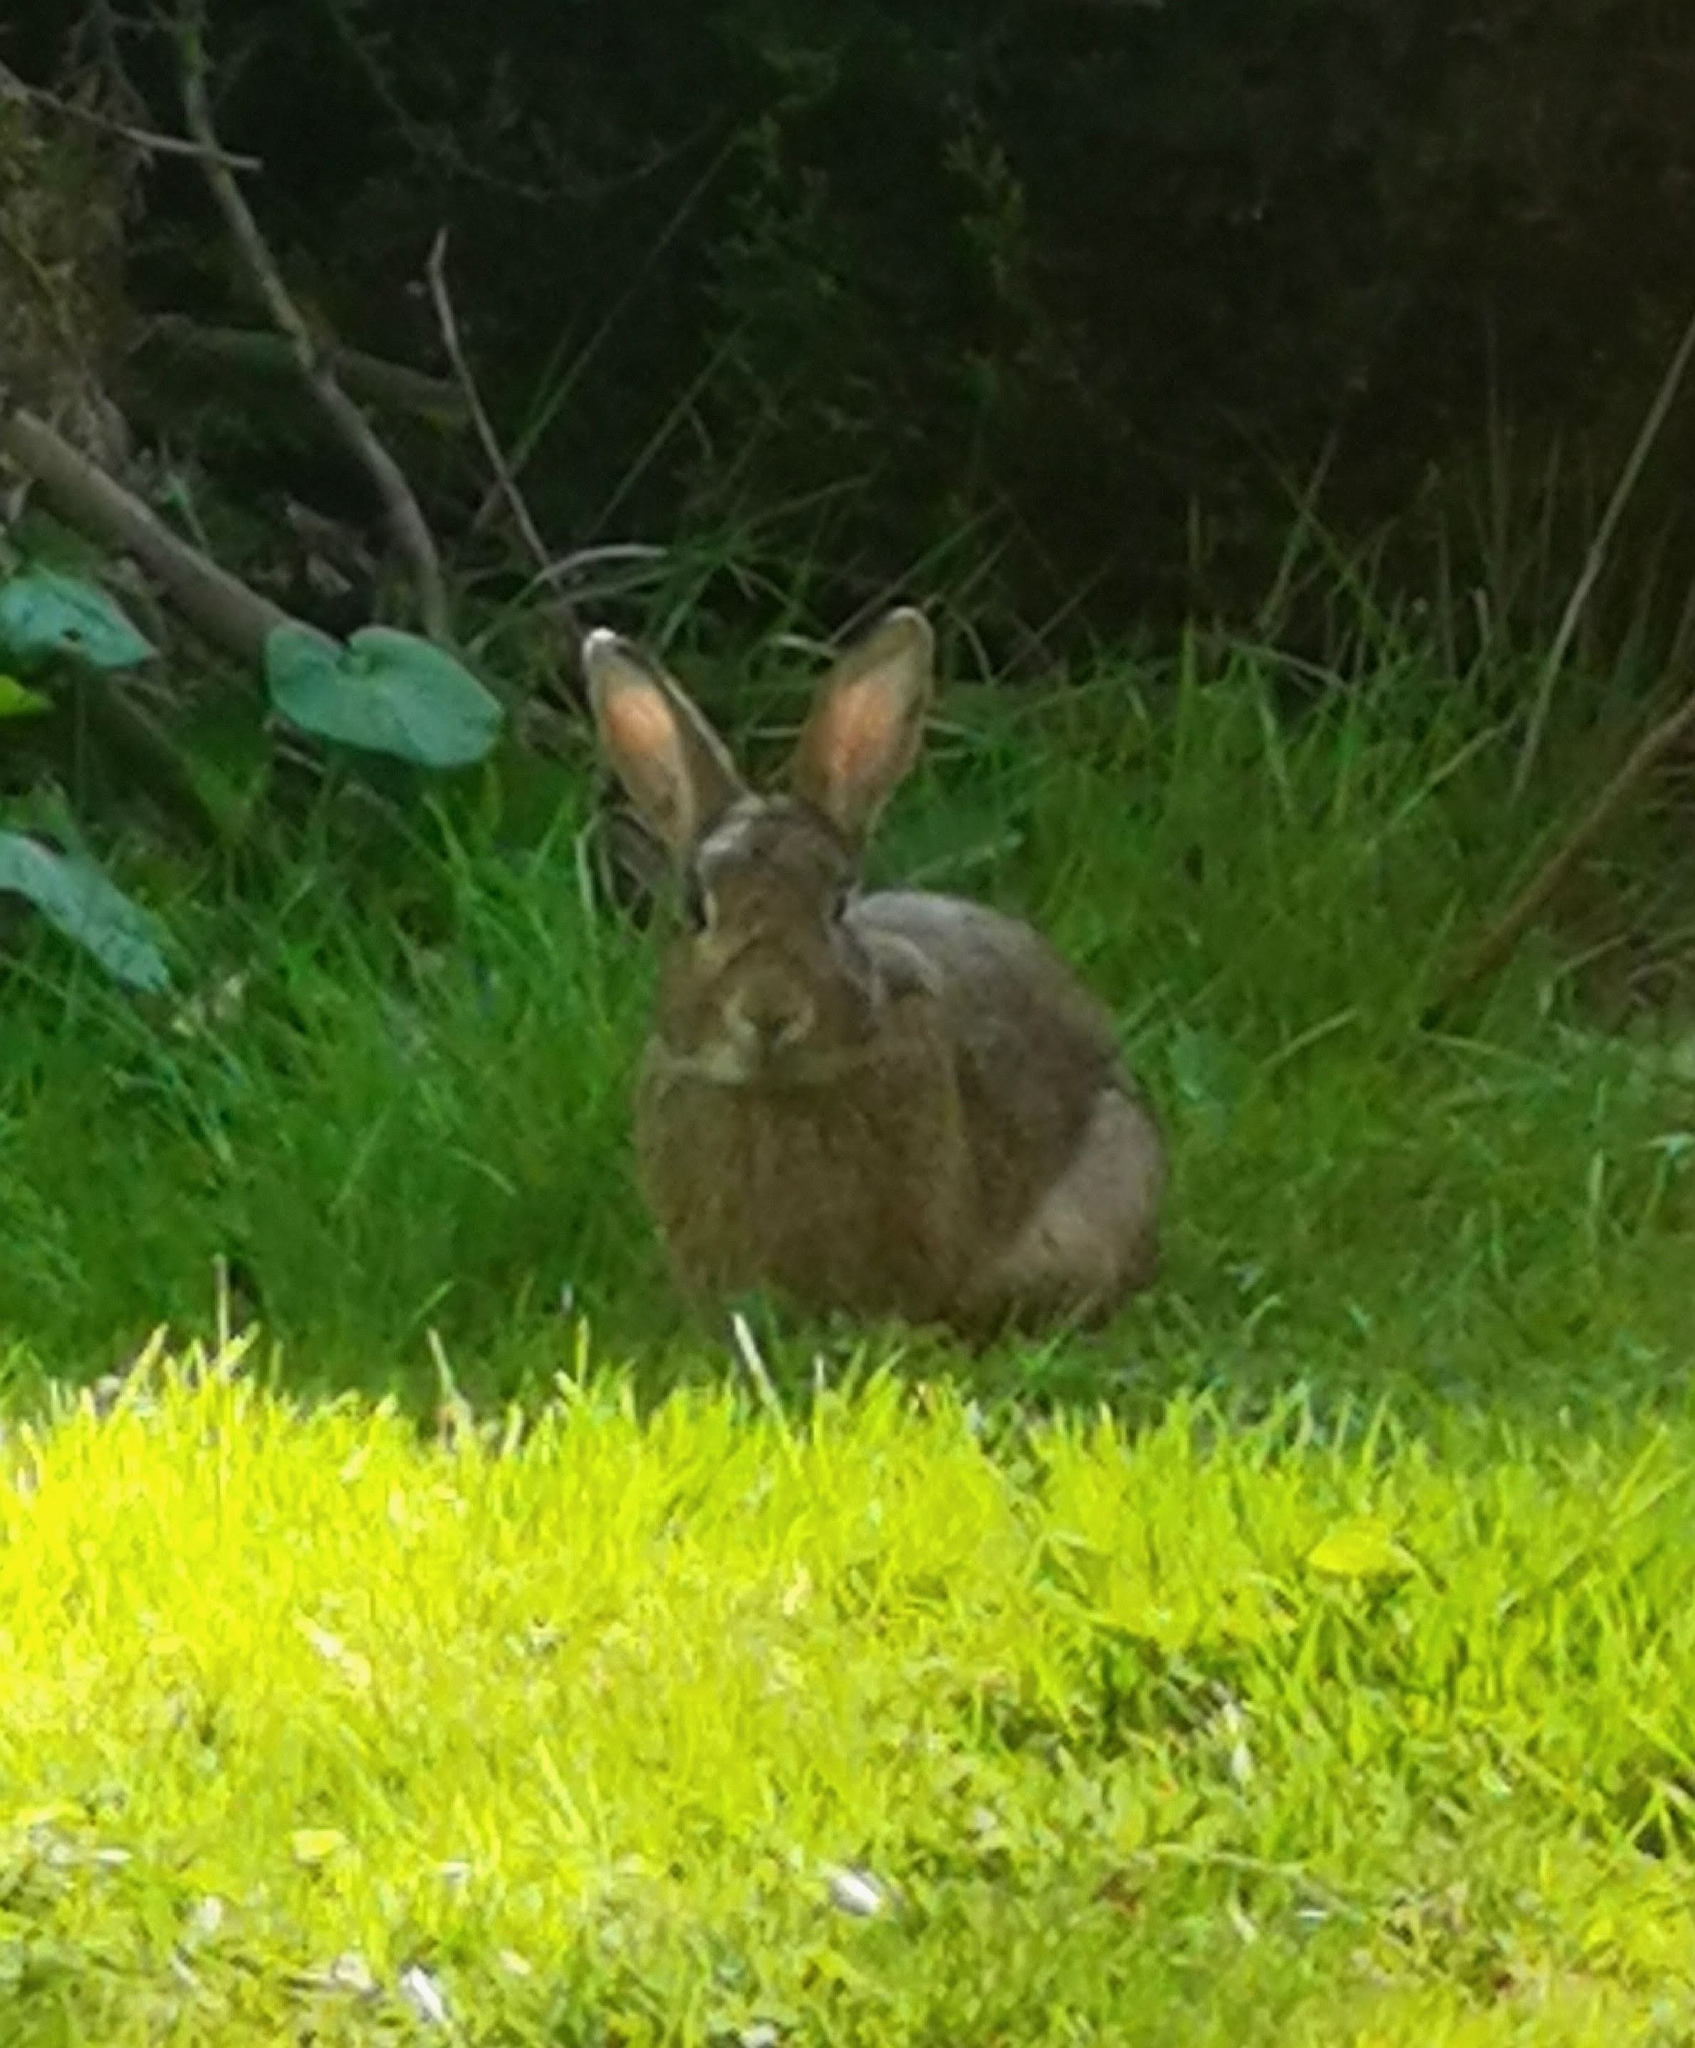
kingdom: Animalia
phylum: Chordata
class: Mammalia
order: Lagomorpha
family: Leporidae
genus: Oryctolagus
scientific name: Oryctolagus cuniculus
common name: European rabbit
